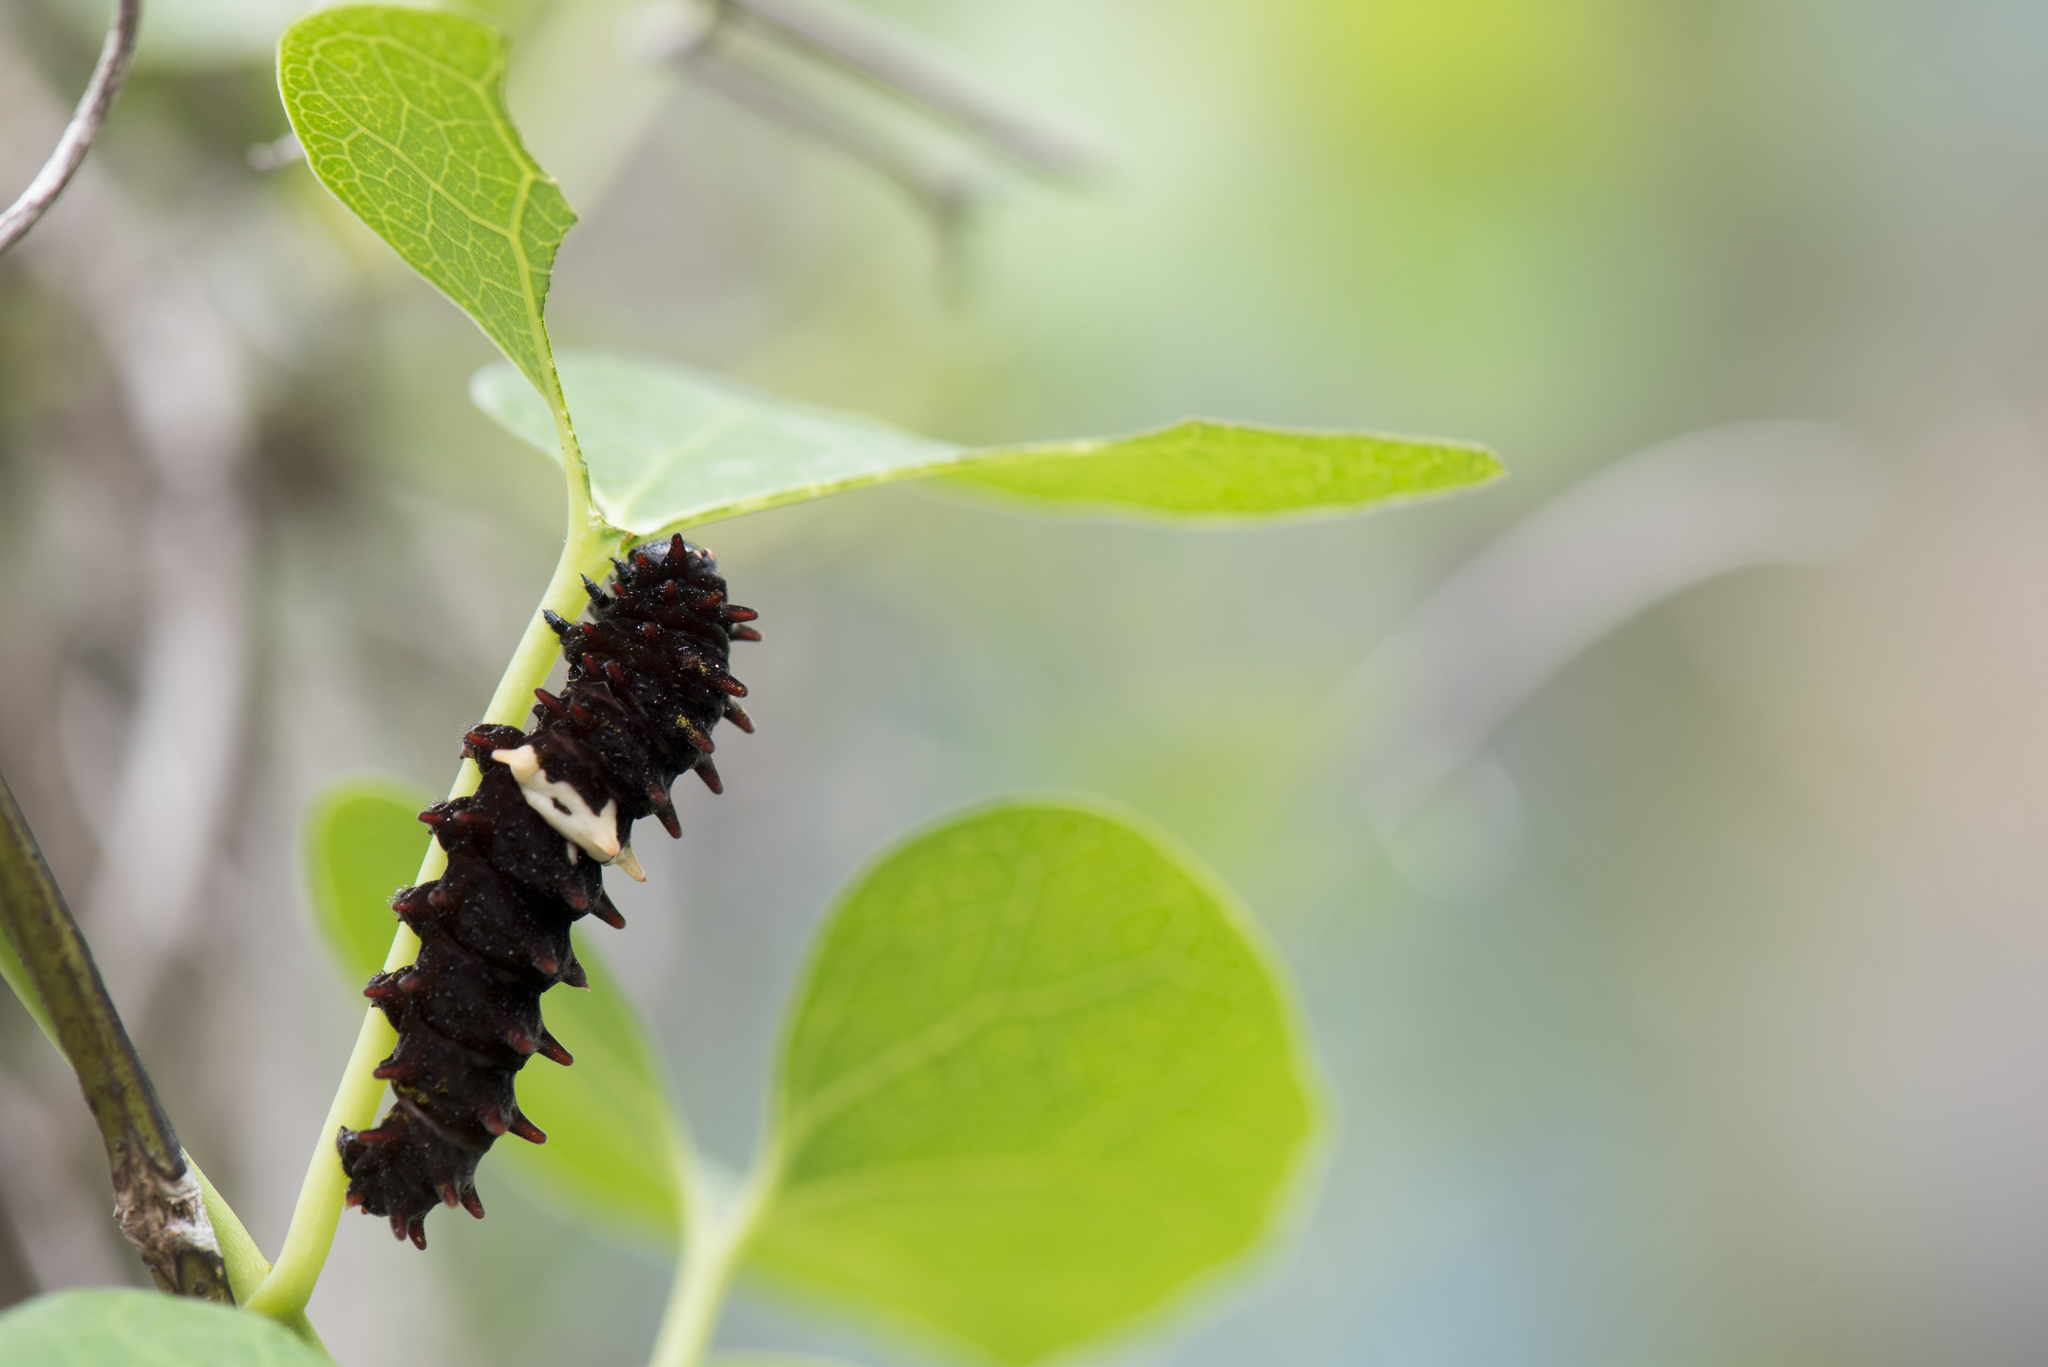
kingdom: Animalia
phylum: Arthropoda
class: Insecta
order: Lepidoptera
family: Papilionidae
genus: Pachliopta
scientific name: Pachliopta aristolochiae
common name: Common rose
